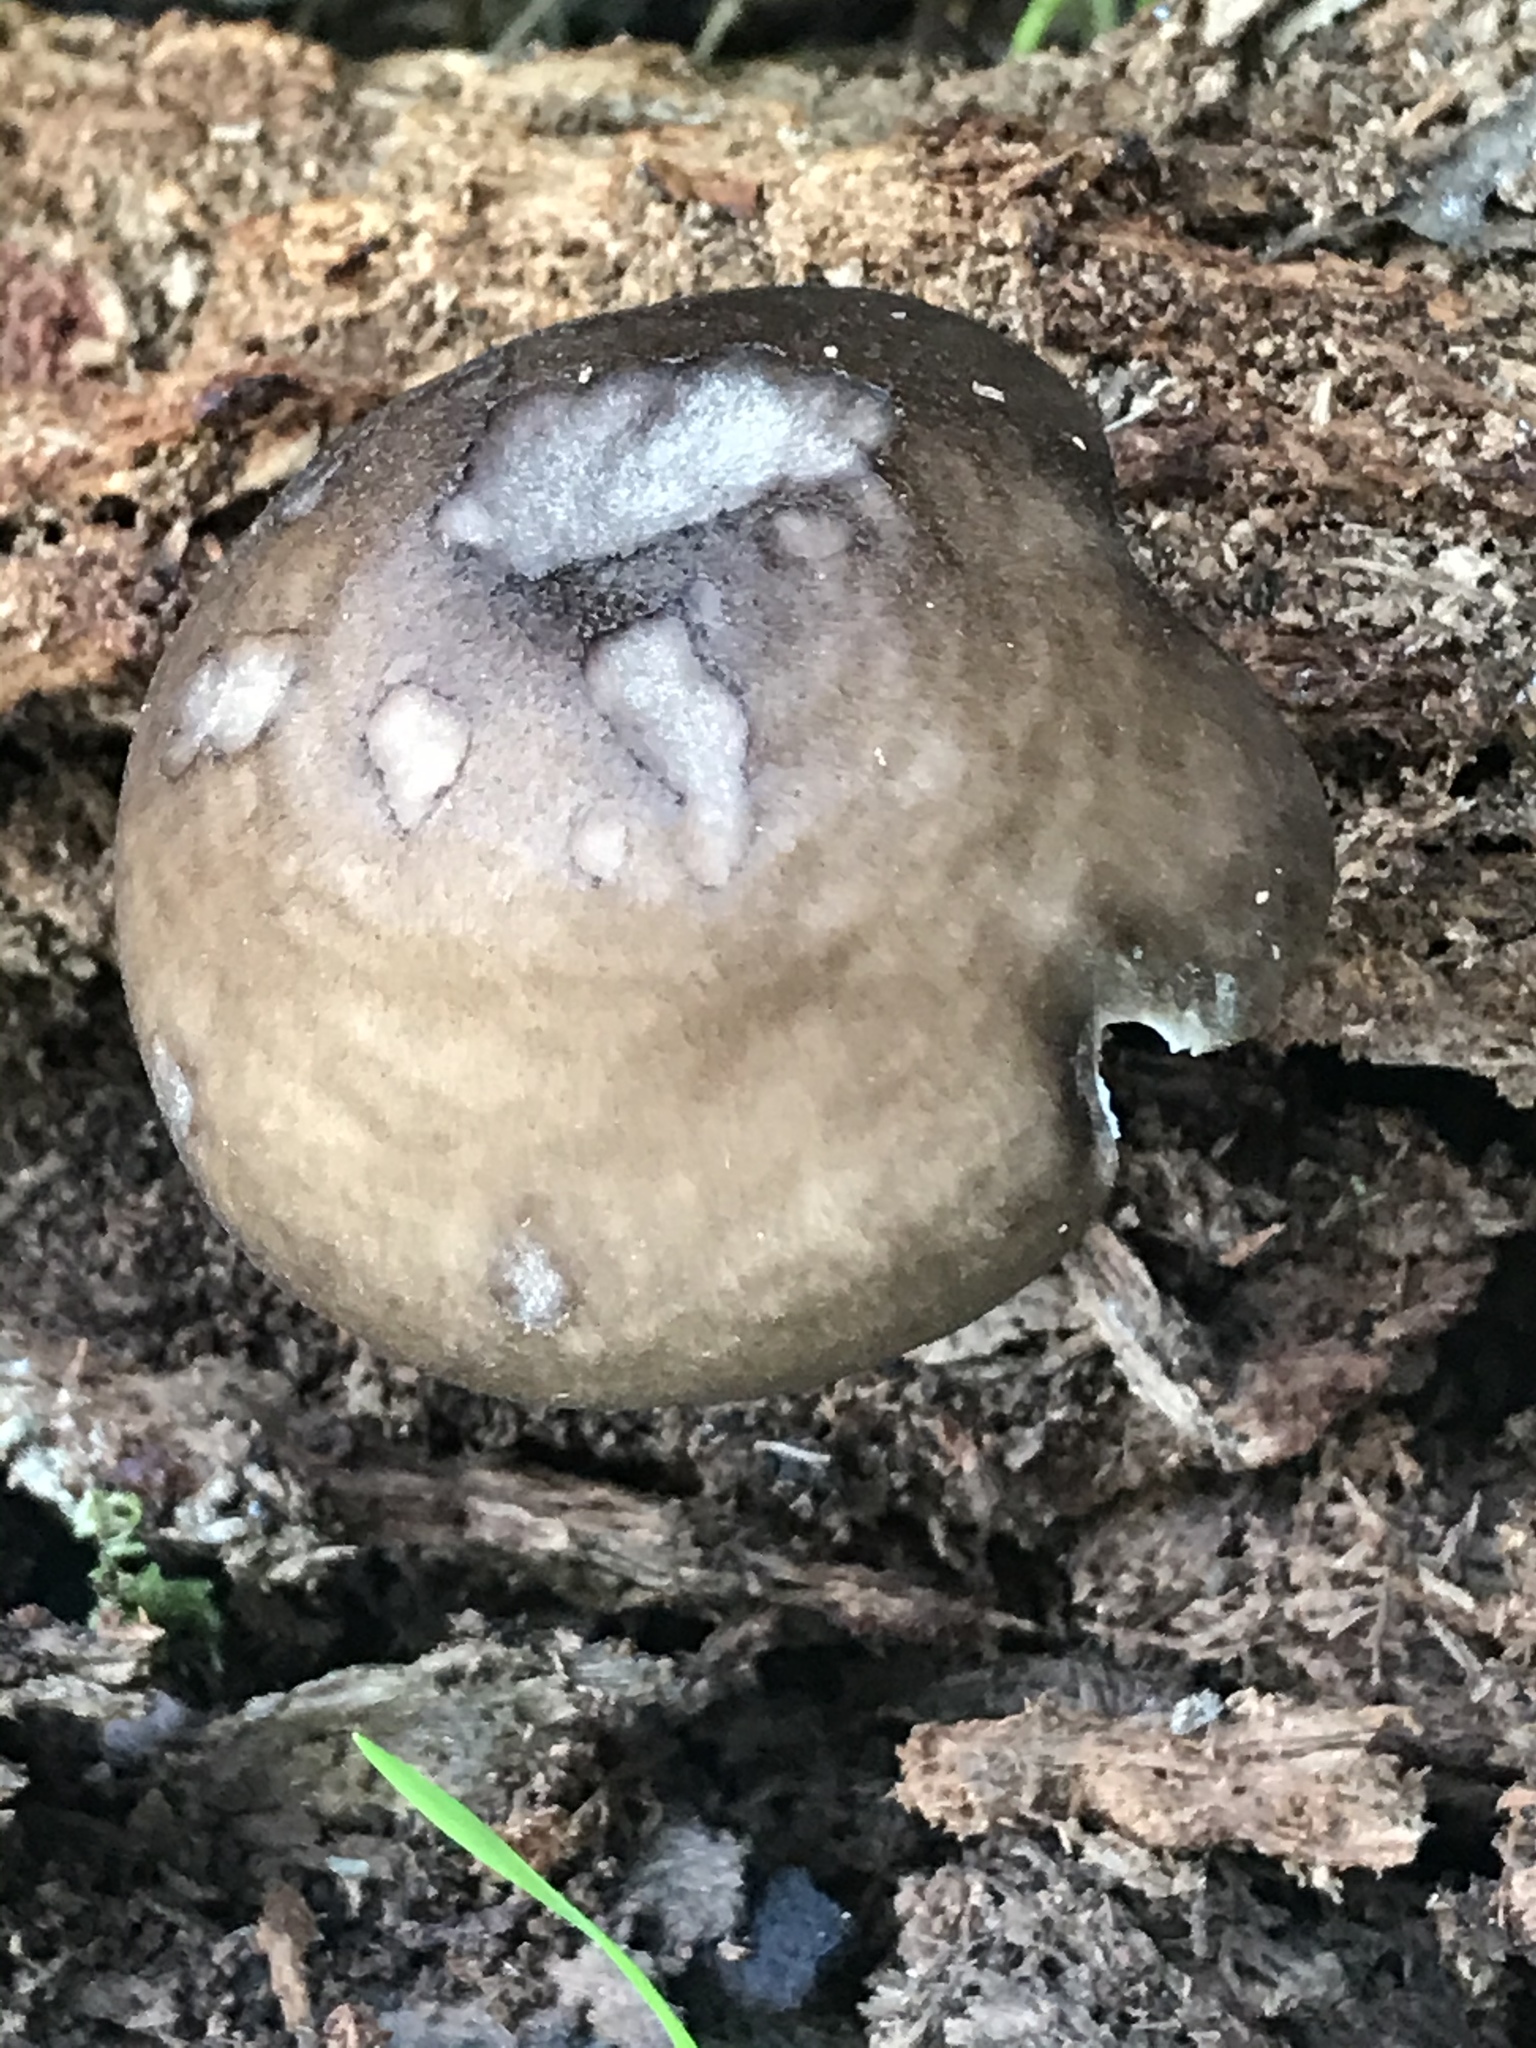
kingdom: Fungi
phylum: Basidiomycota
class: Agaricomycetes
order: Agaricales
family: Pluteaceae
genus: Pluteus
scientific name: Pluteus exilis
